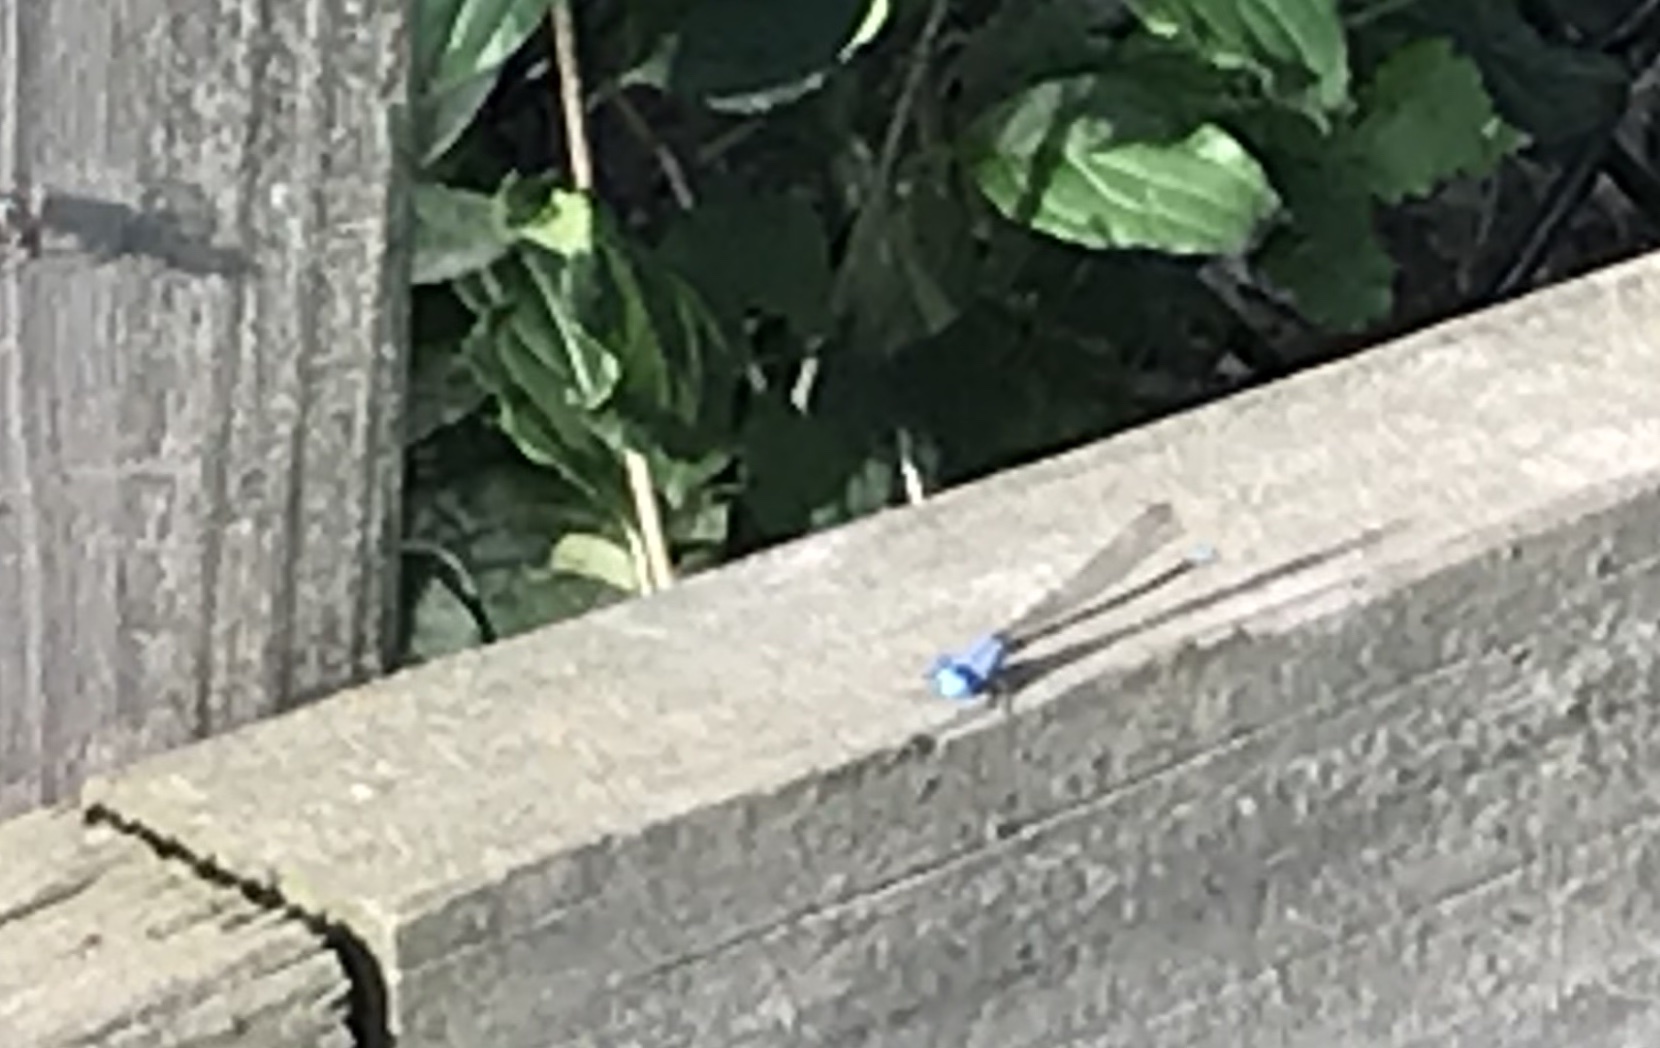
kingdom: Animalia
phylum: Arthropoda
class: Insecta
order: Odonata
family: Coenagrionidae
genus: Argia
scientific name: Argia apicalis
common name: Blue-fronted dancer
